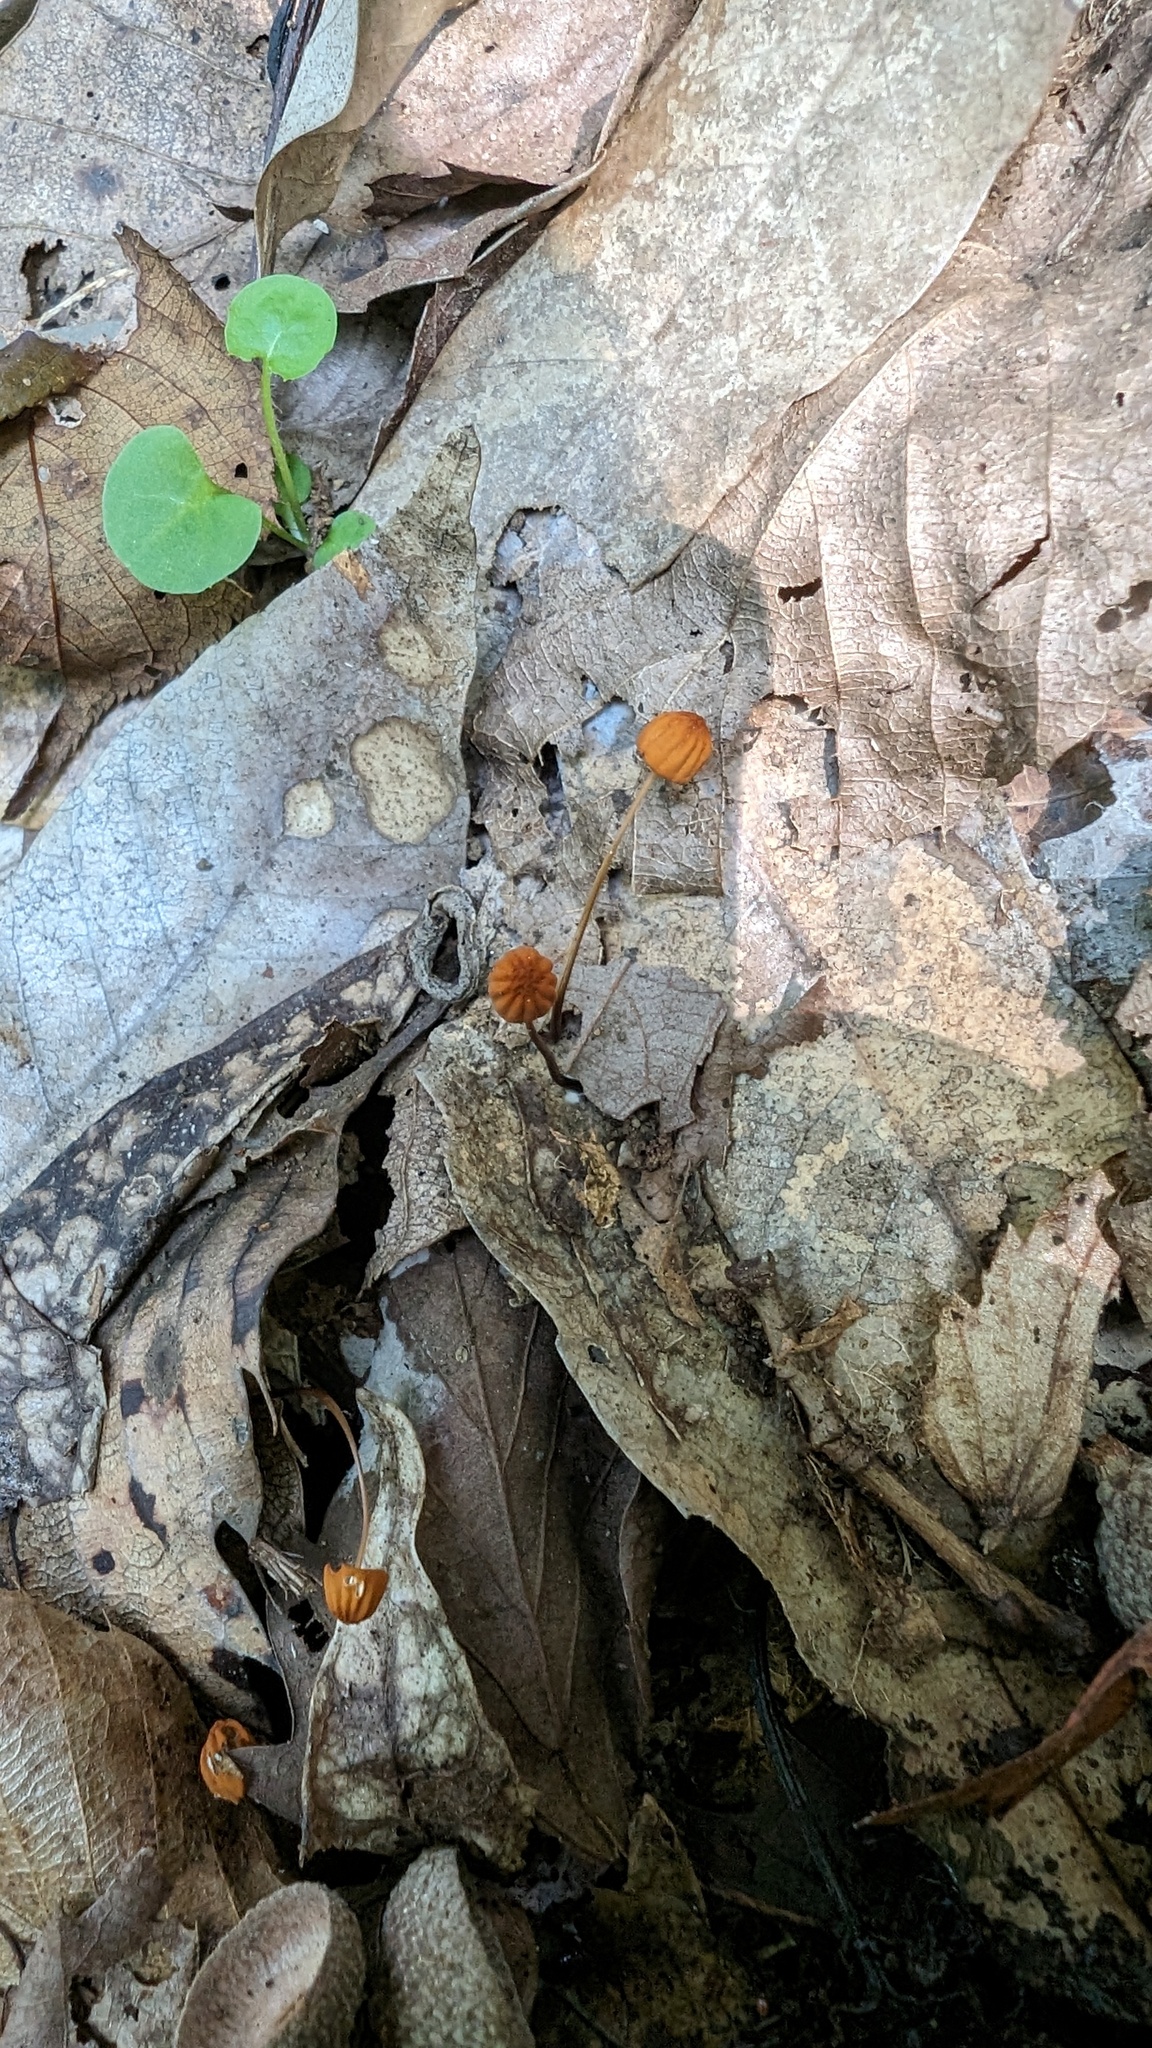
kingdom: Fungi
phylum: Basidiomycota
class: Agaricomycetes
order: Agaricales
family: Marasmiaceae
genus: Marasmius
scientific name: Marasmius siccus
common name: Orange pinwheel
